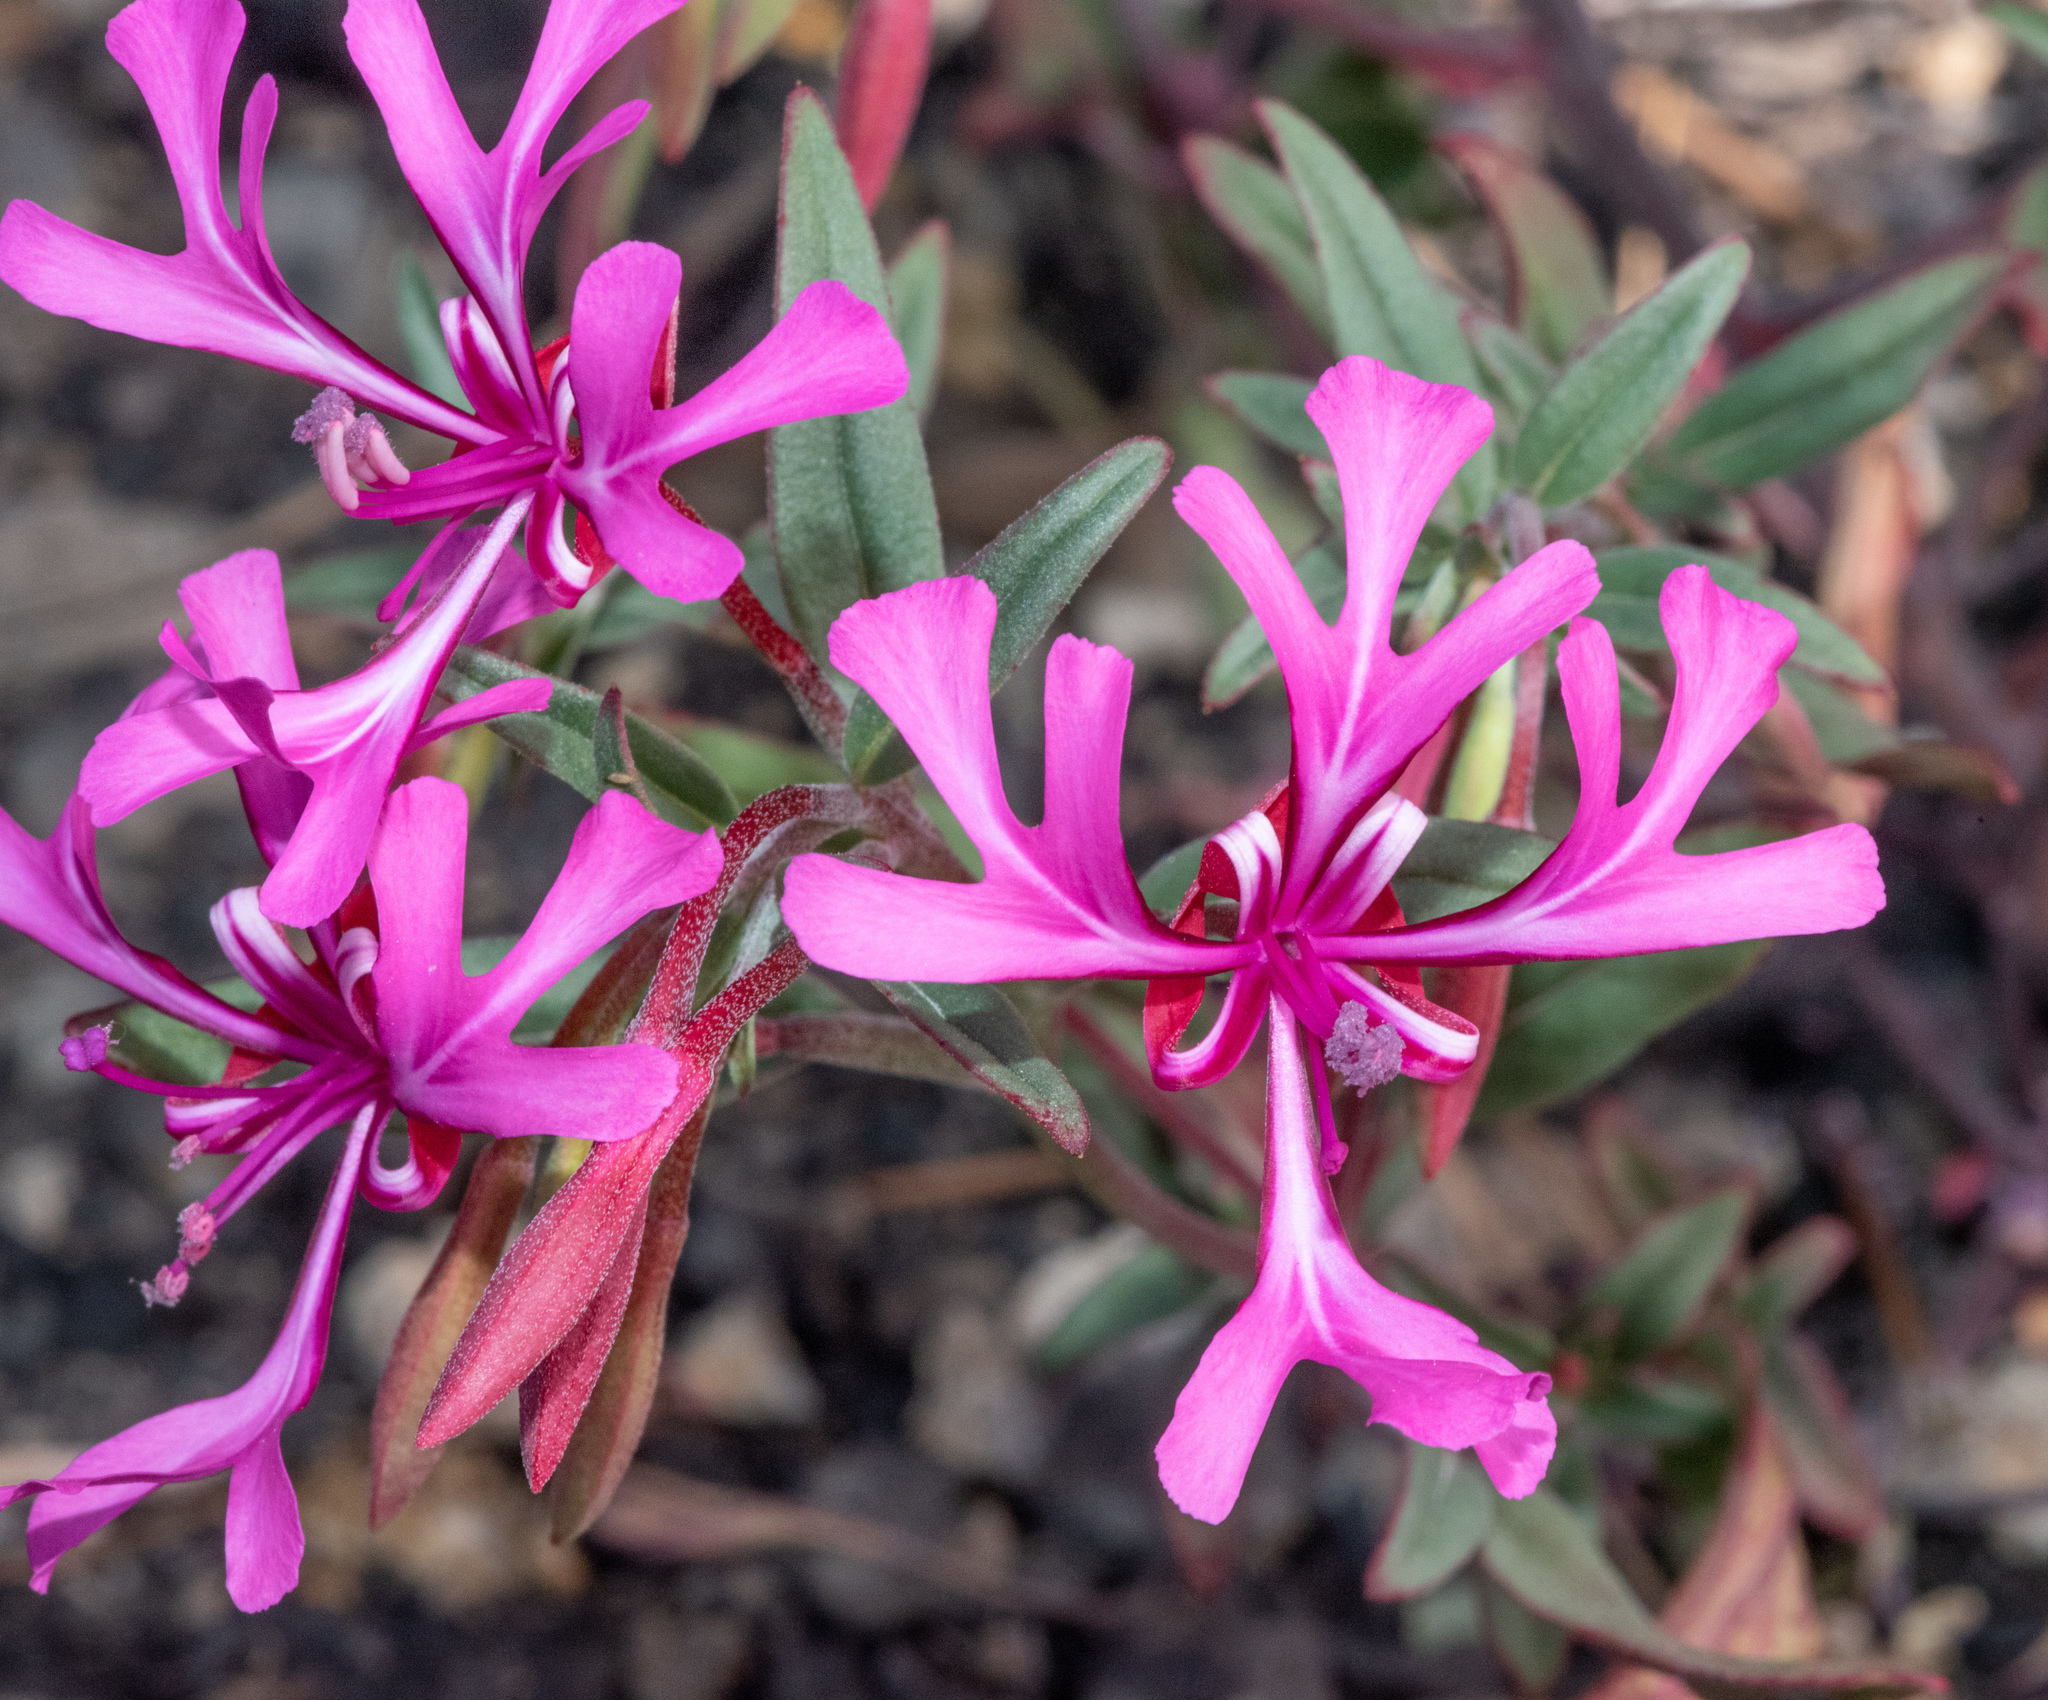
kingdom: Plantae
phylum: Tracheophyta
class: Magnoliopsida
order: Myrtales
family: Onagraceae
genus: Clarkia
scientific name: Clarkia concinna
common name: Red-ribbons
